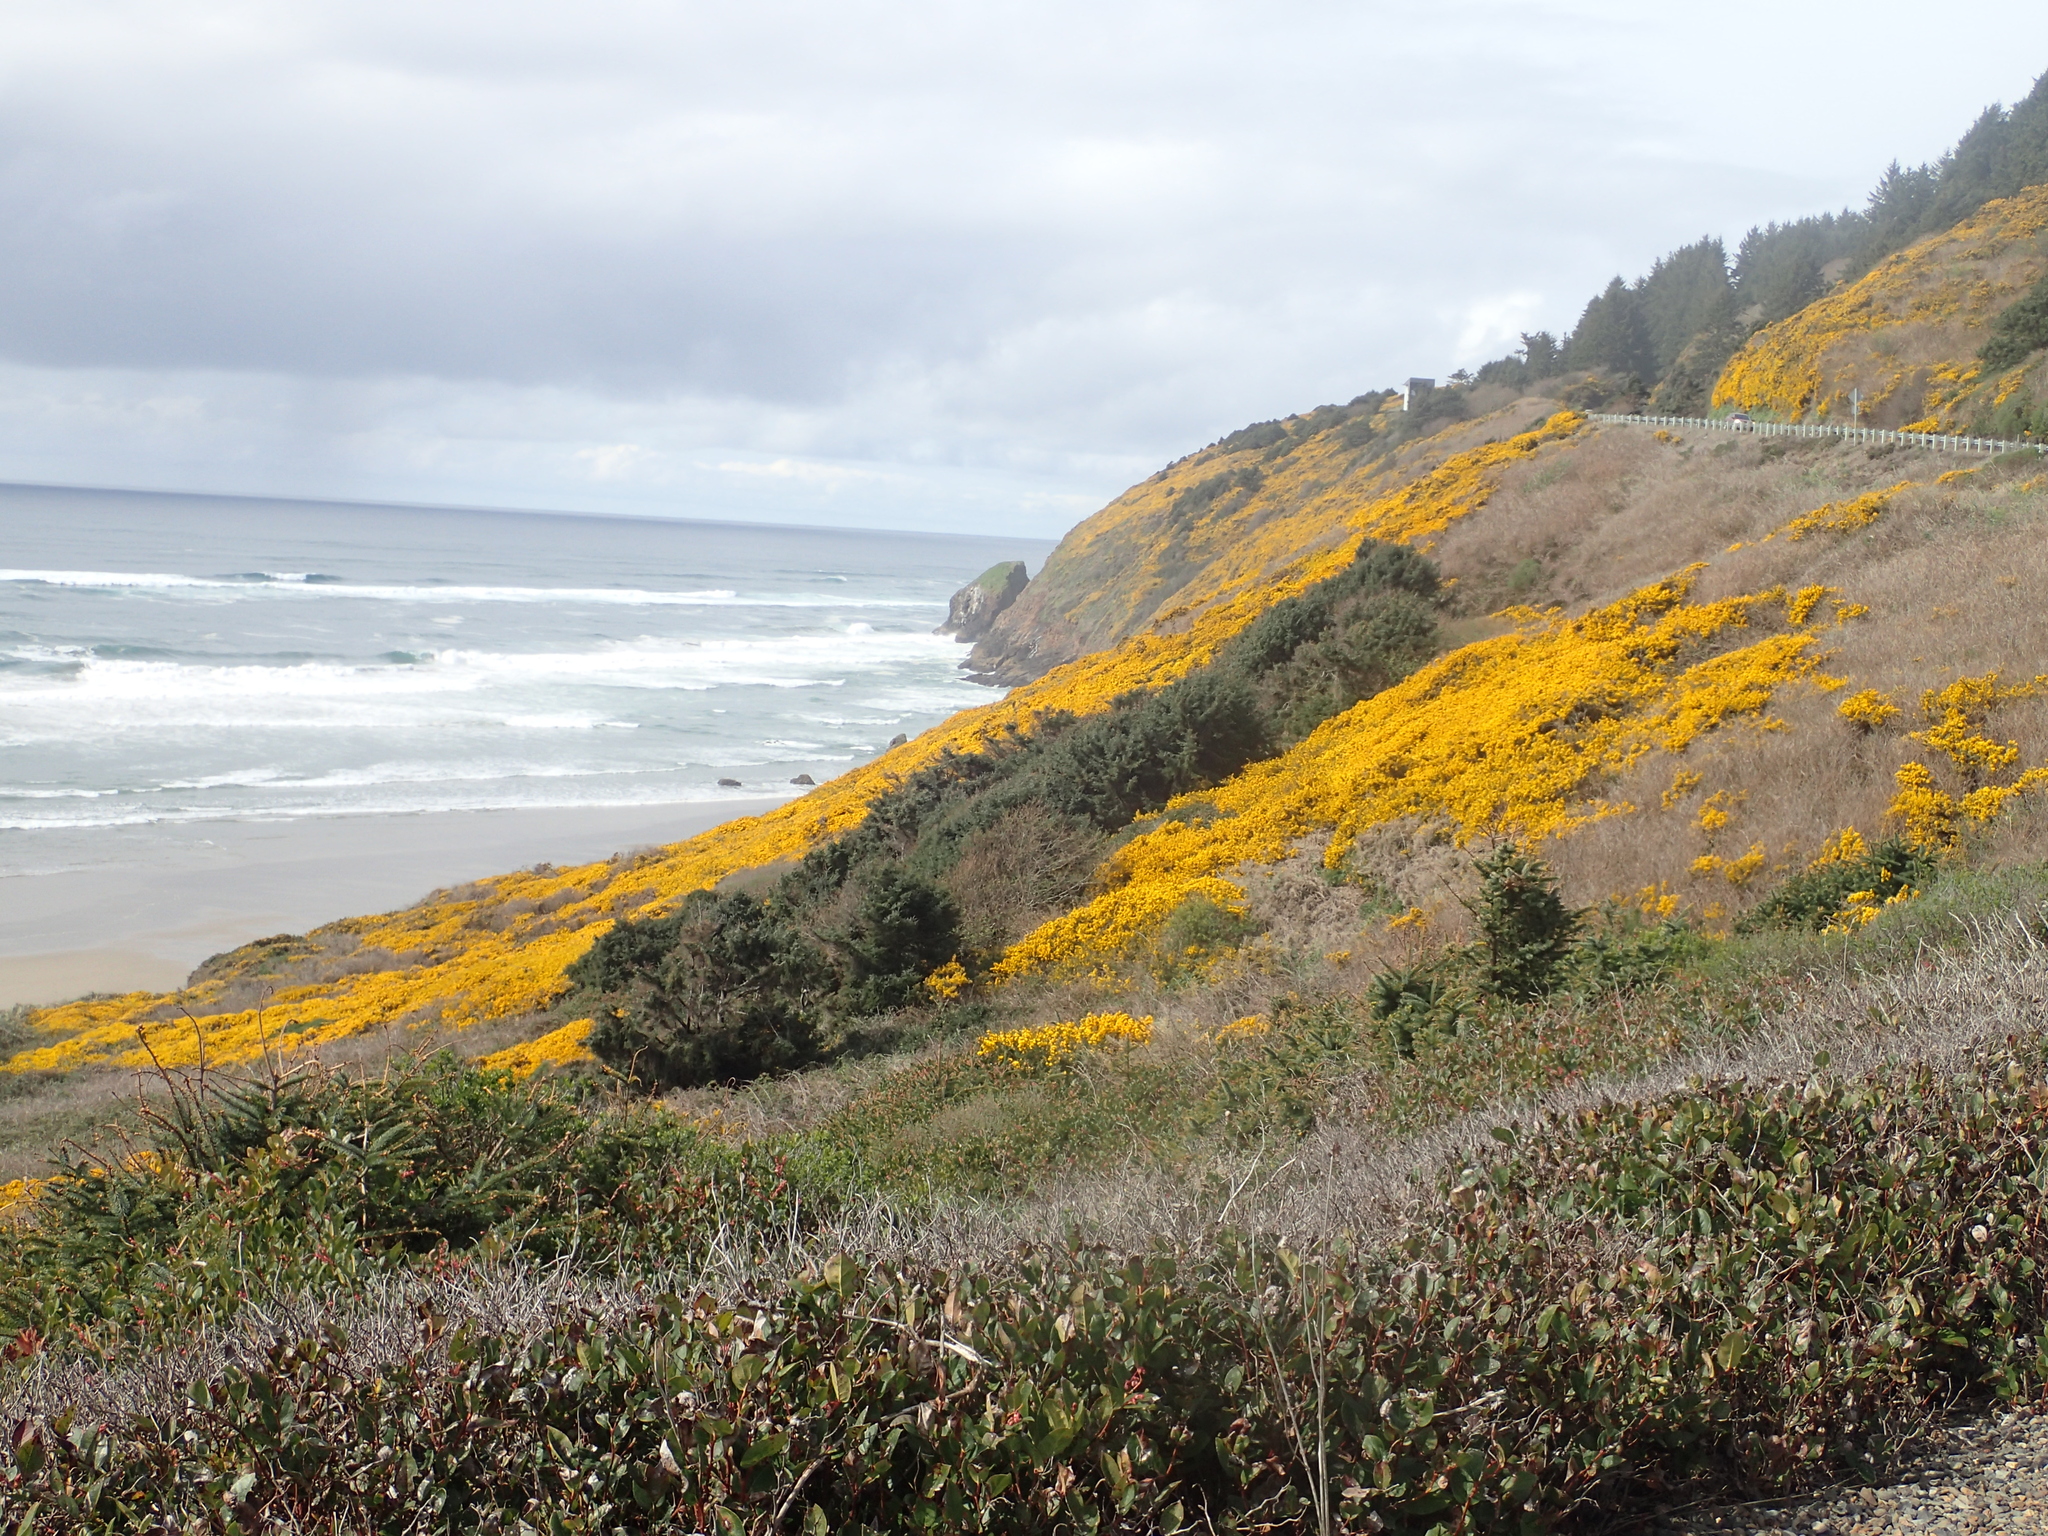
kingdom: Plantae
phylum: Tracheophyta
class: Magnoliopsida
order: Fabales
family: Fabaceae
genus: Ulex
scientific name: Ulex europaeus
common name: Common gorse
